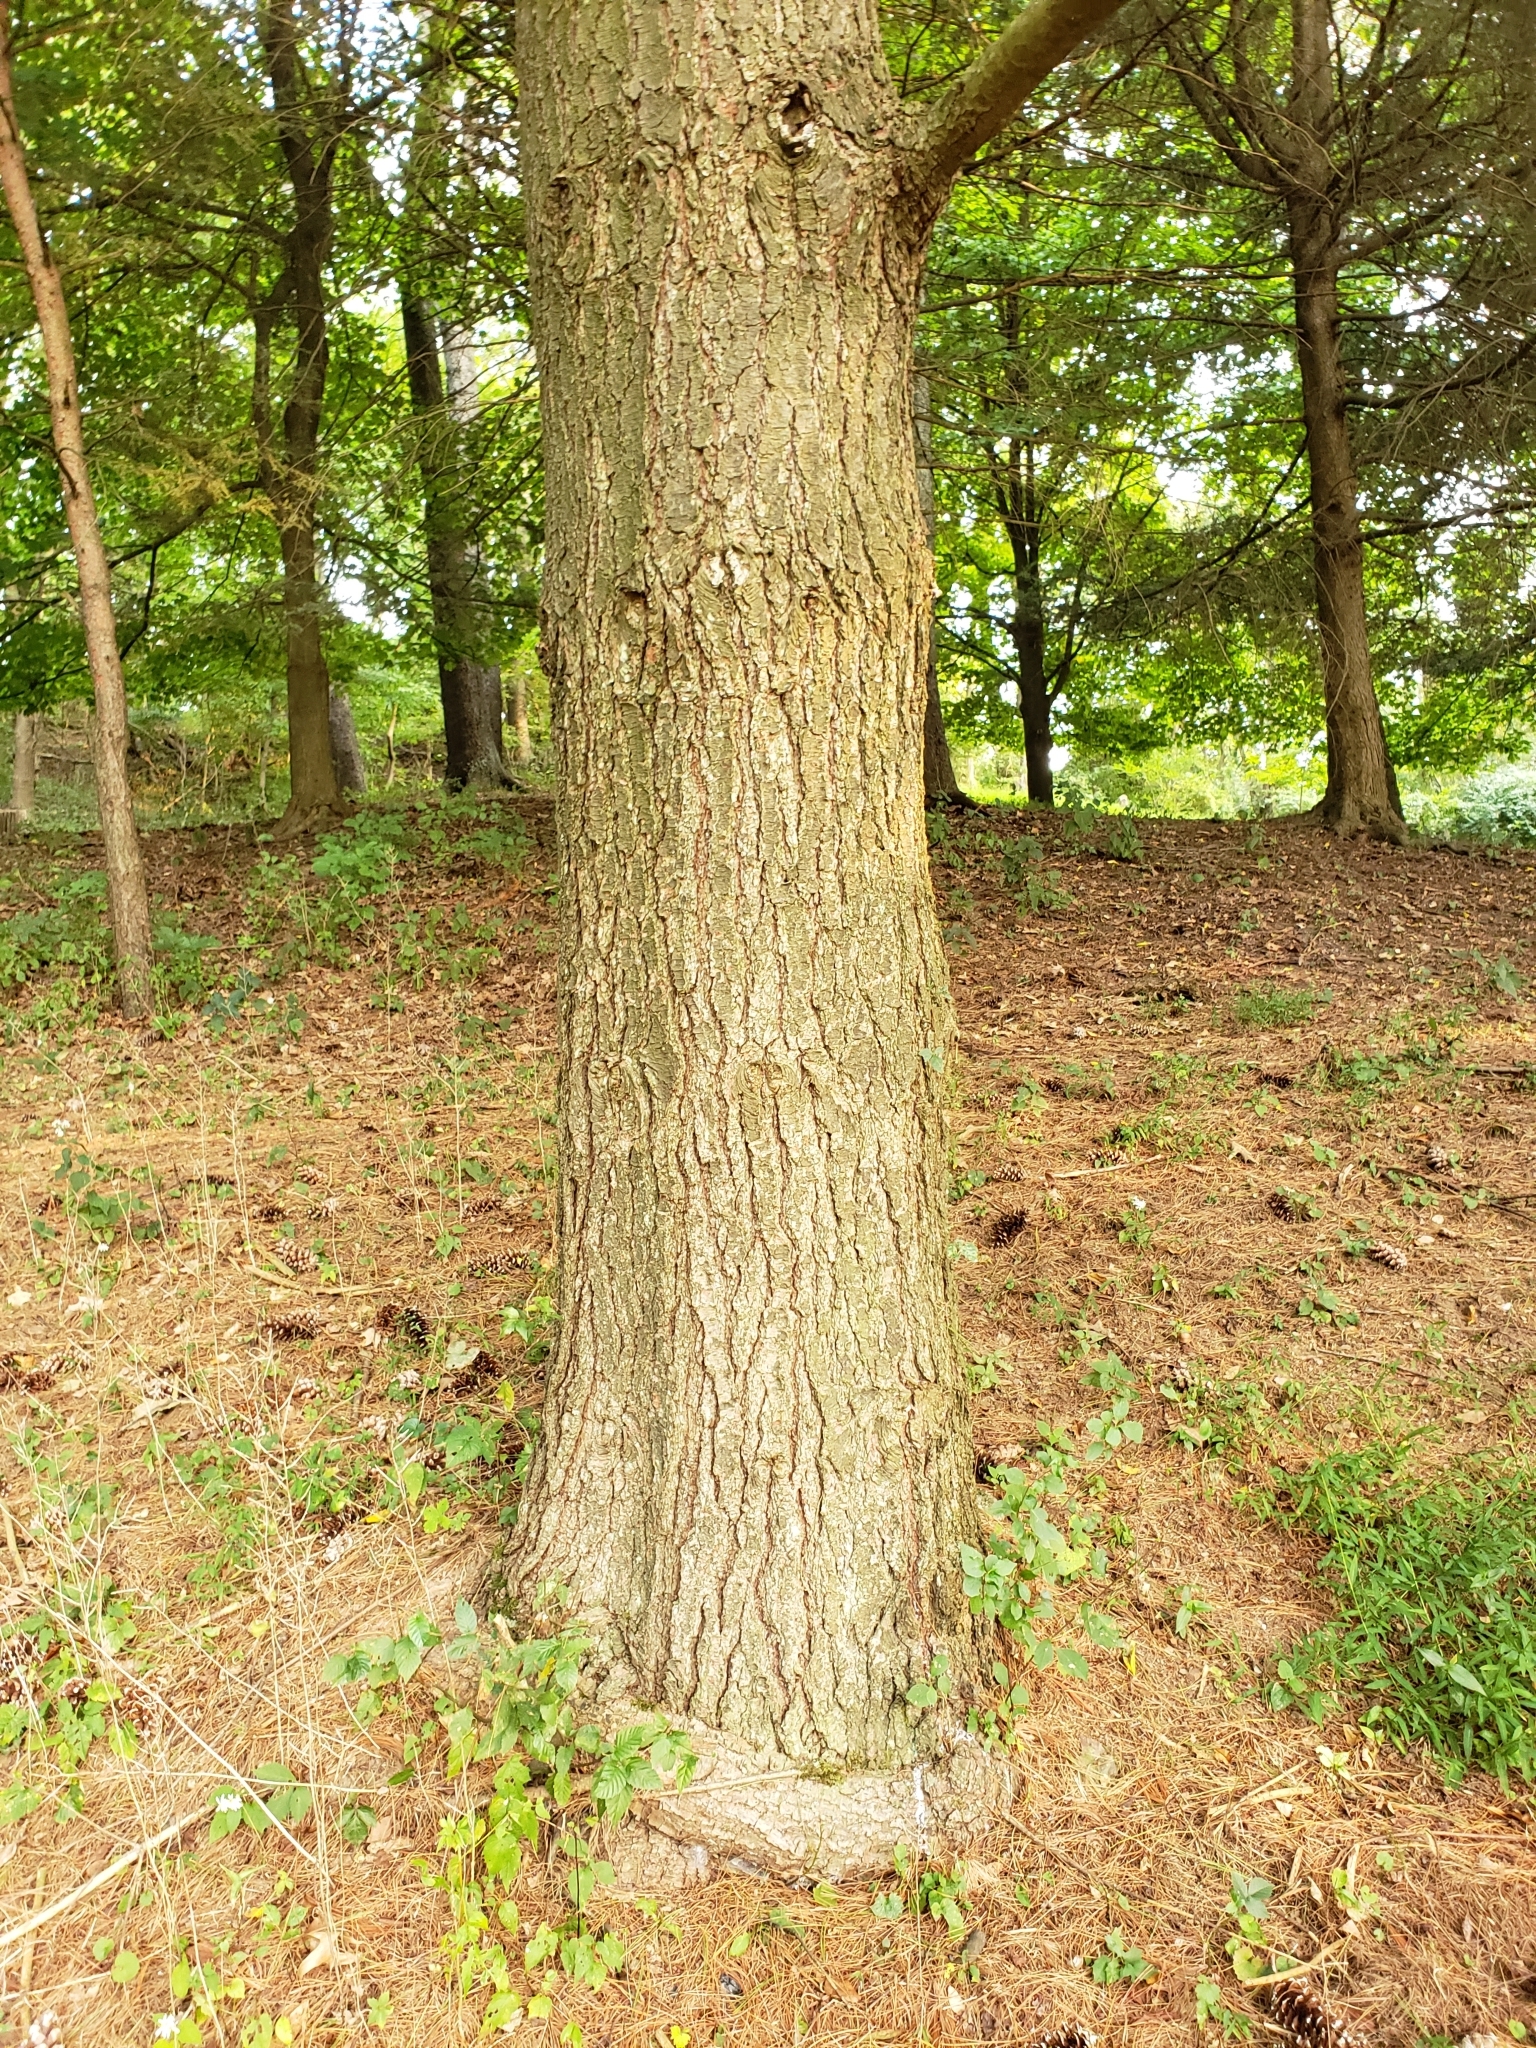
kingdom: Plantae
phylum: Tracheophyta
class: Pinopsida
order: Pinales
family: Pinaceae
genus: Pinus
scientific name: Pinus strobus
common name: Weymouth pine
